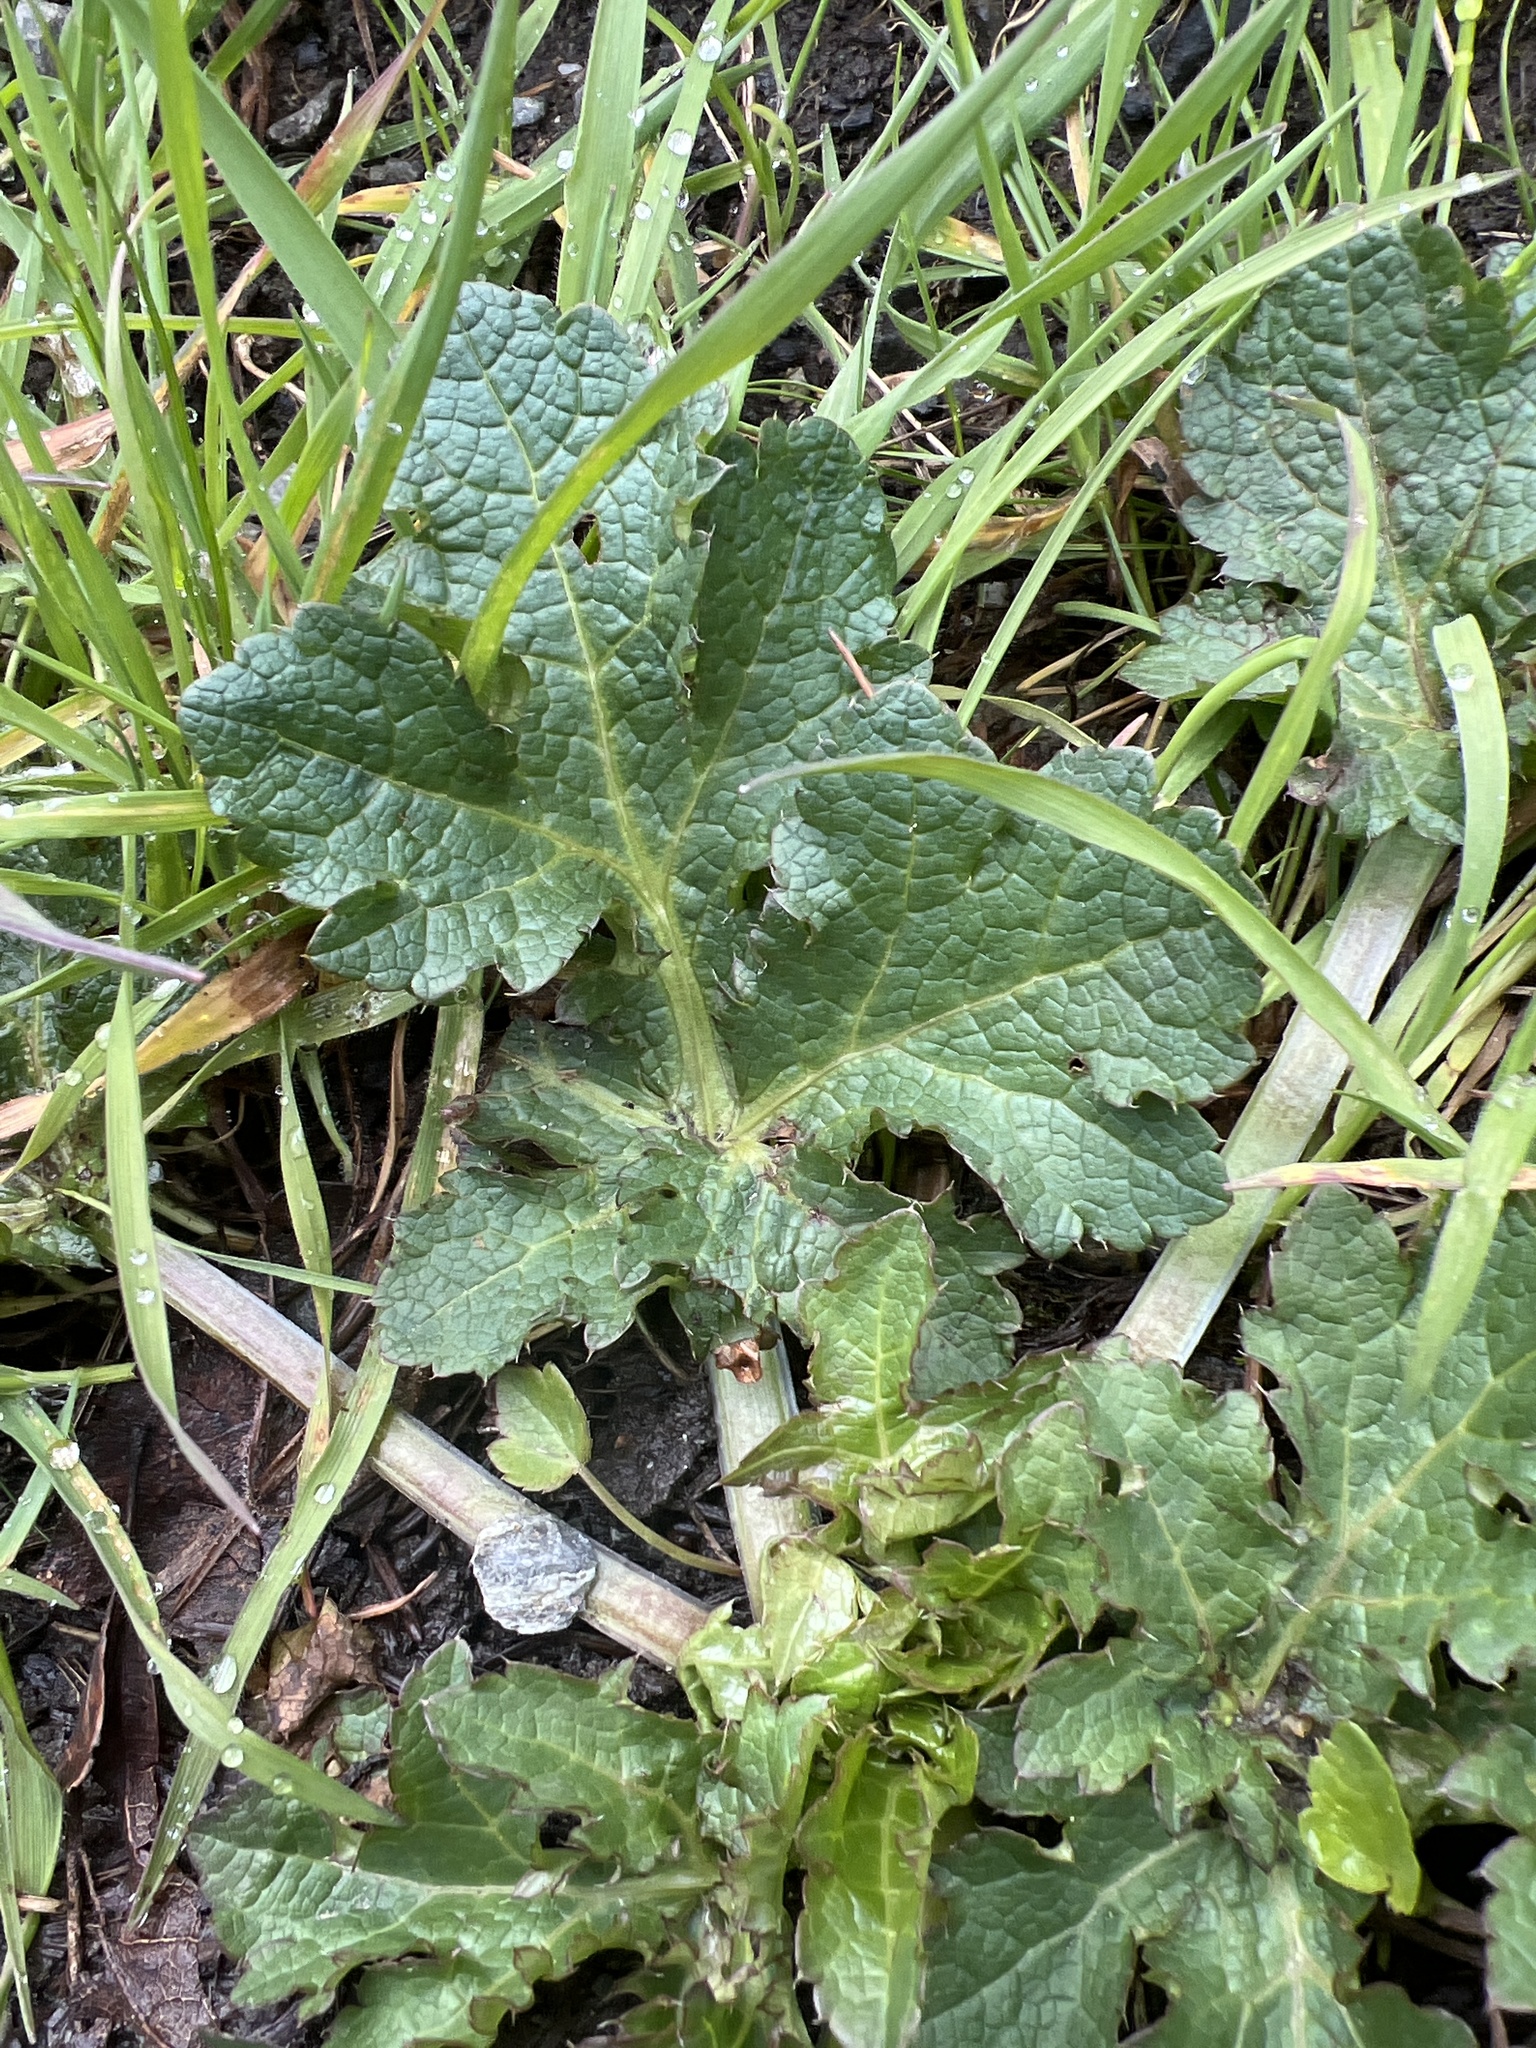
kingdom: Plantae
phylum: Tracheophyta
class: Magnoliopsida
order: Apiales
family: Apiaceae
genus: Sanicula
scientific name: Sanicula crassicaulis
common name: Western snakeroot
